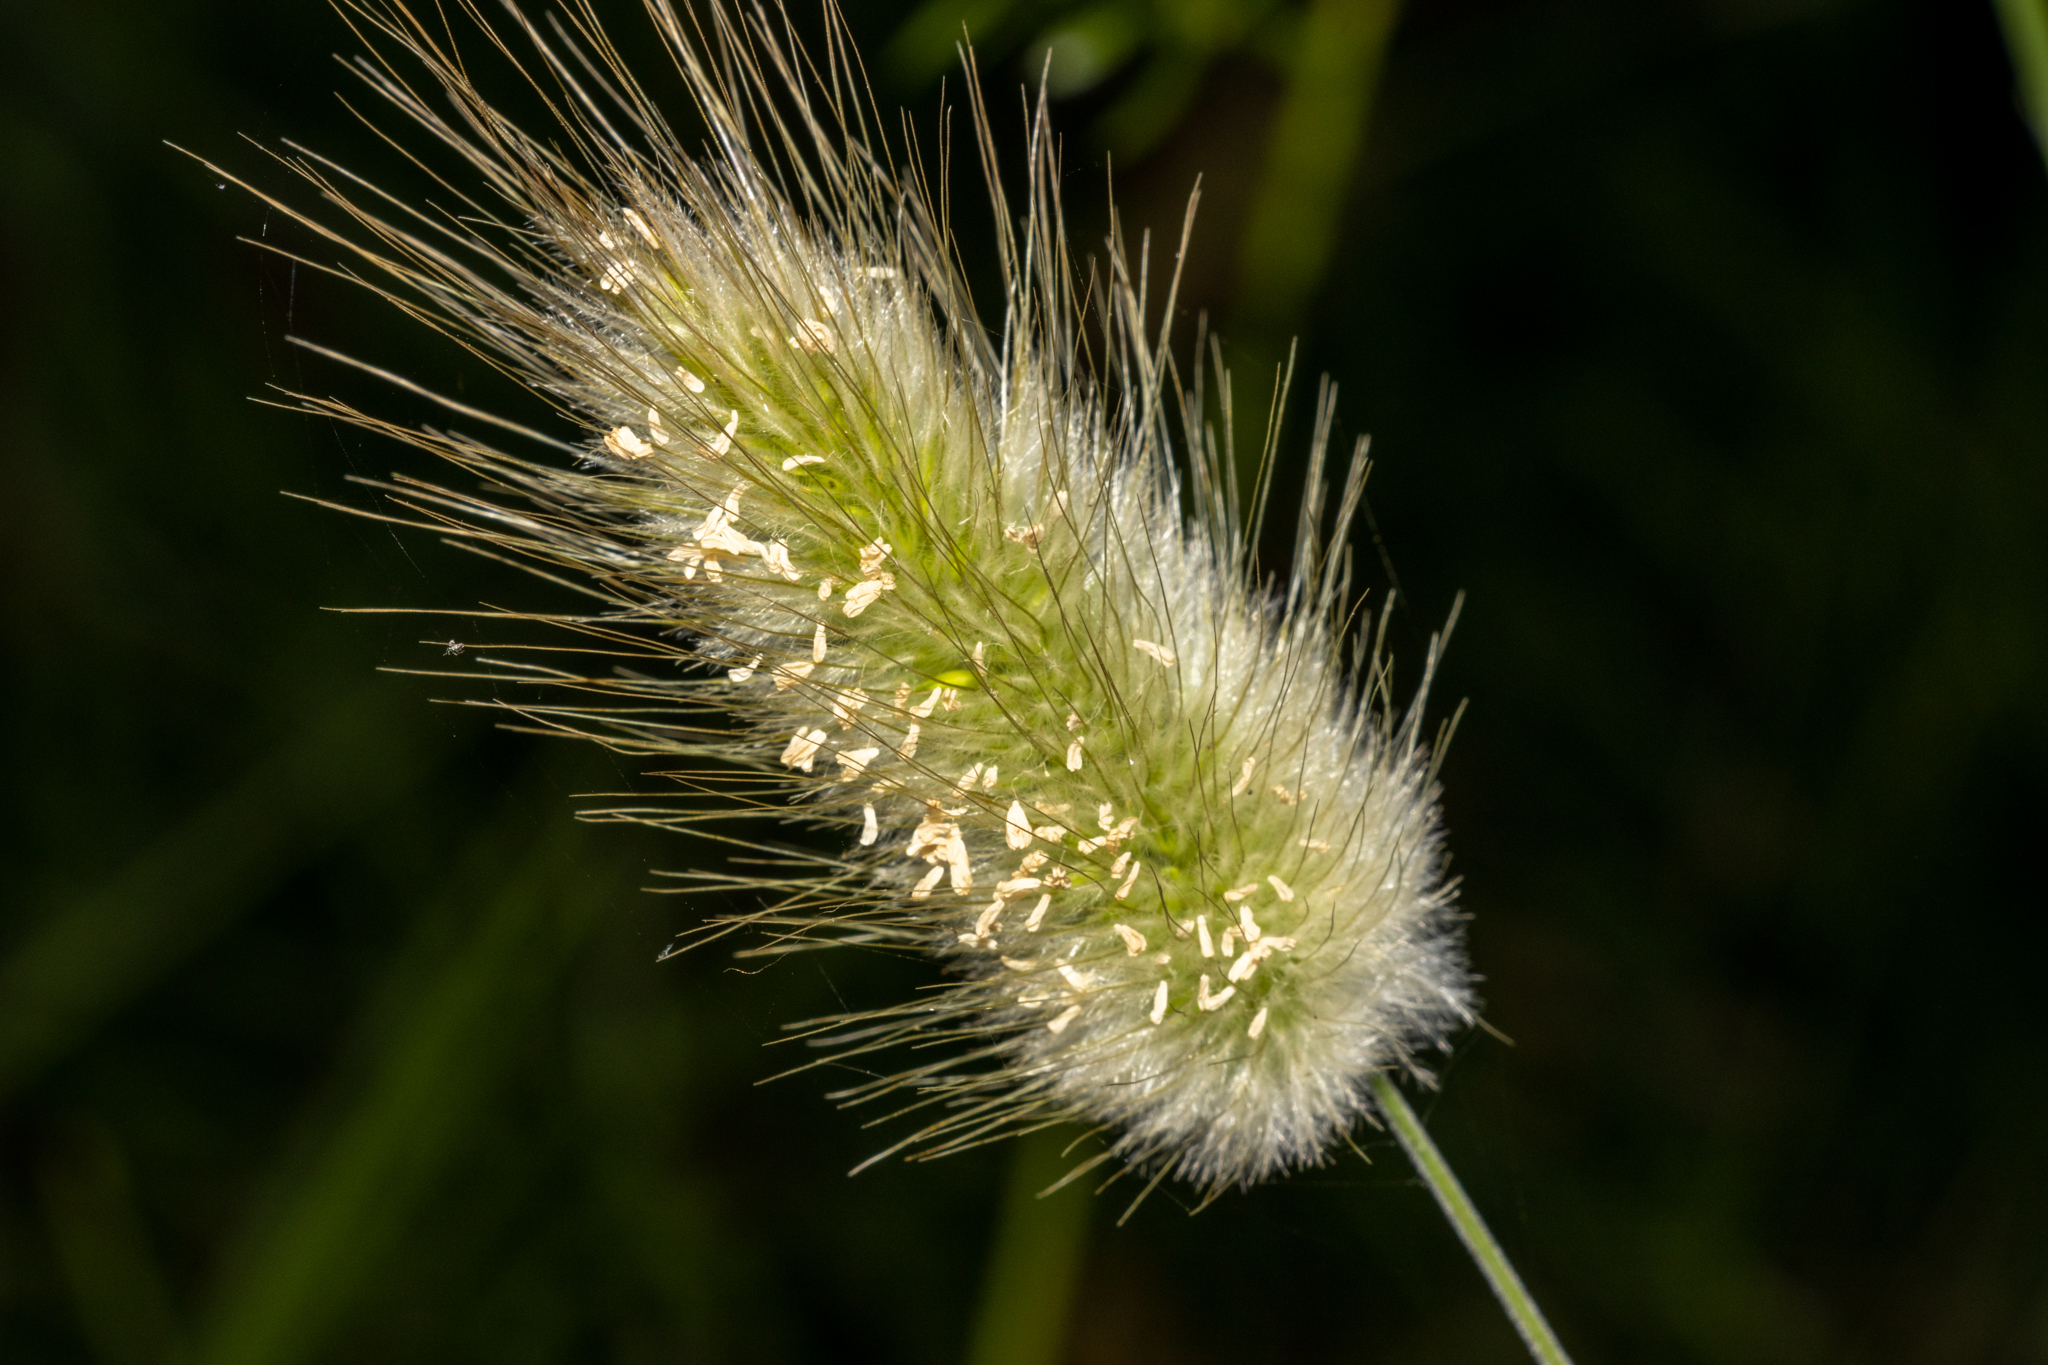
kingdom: Plantae
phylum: Tracheophyta
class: Liliopsida
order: Poales
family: Poaceae
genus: Lagurus
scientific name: Lagurus ovatus
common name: Hare's-tail
